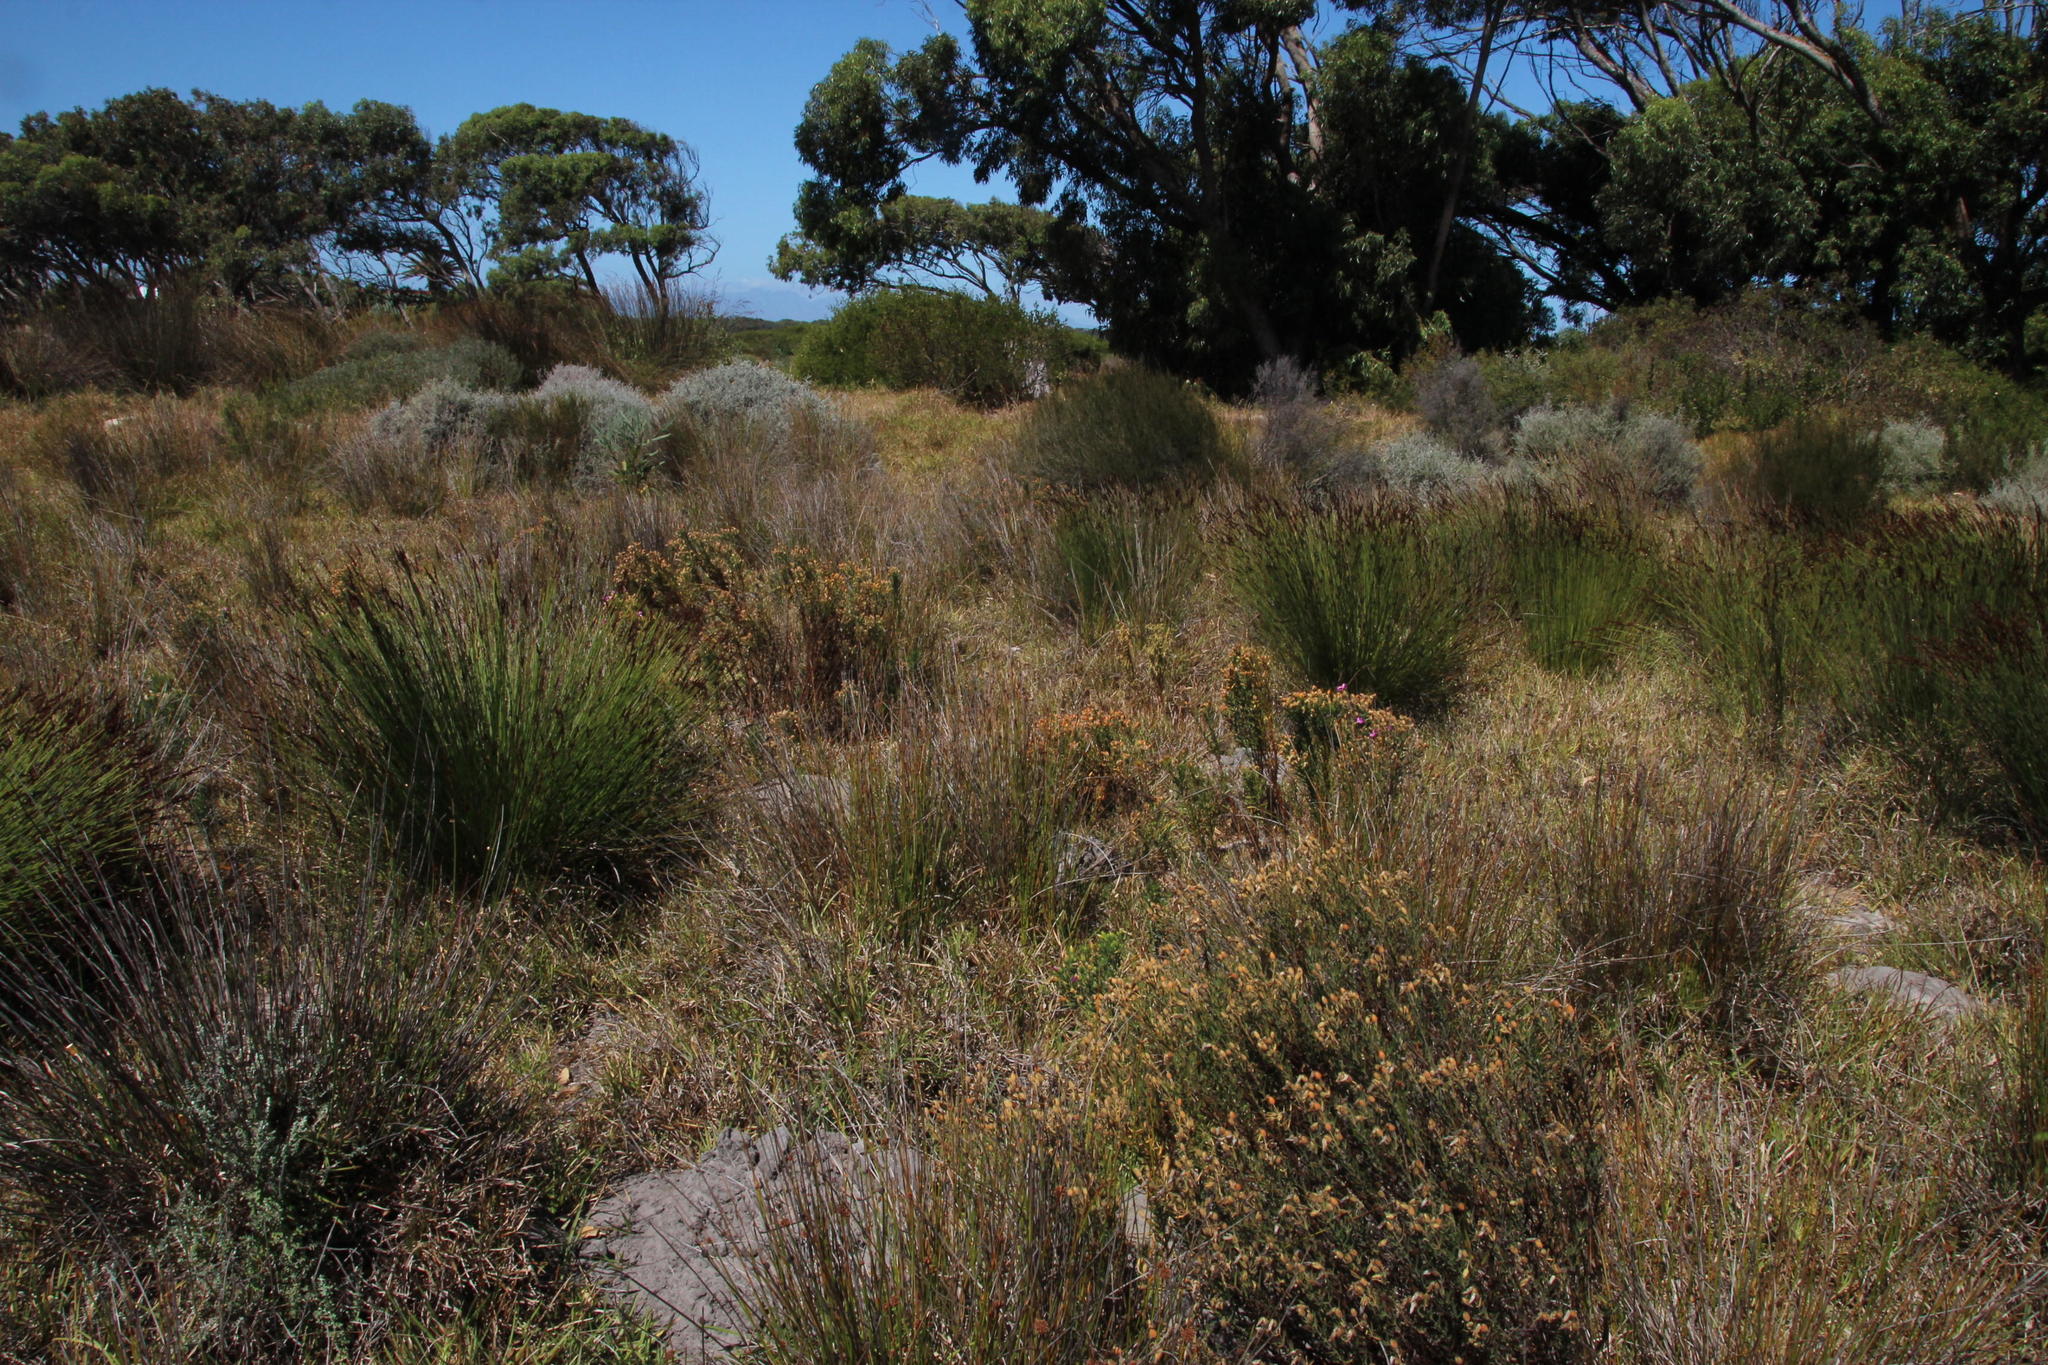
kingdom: Plantae
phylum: Tracheophyta
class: Magnoliopsida
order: Gentianales
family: Gentianaceae
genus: Orphium
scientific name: Orphium frutescens
